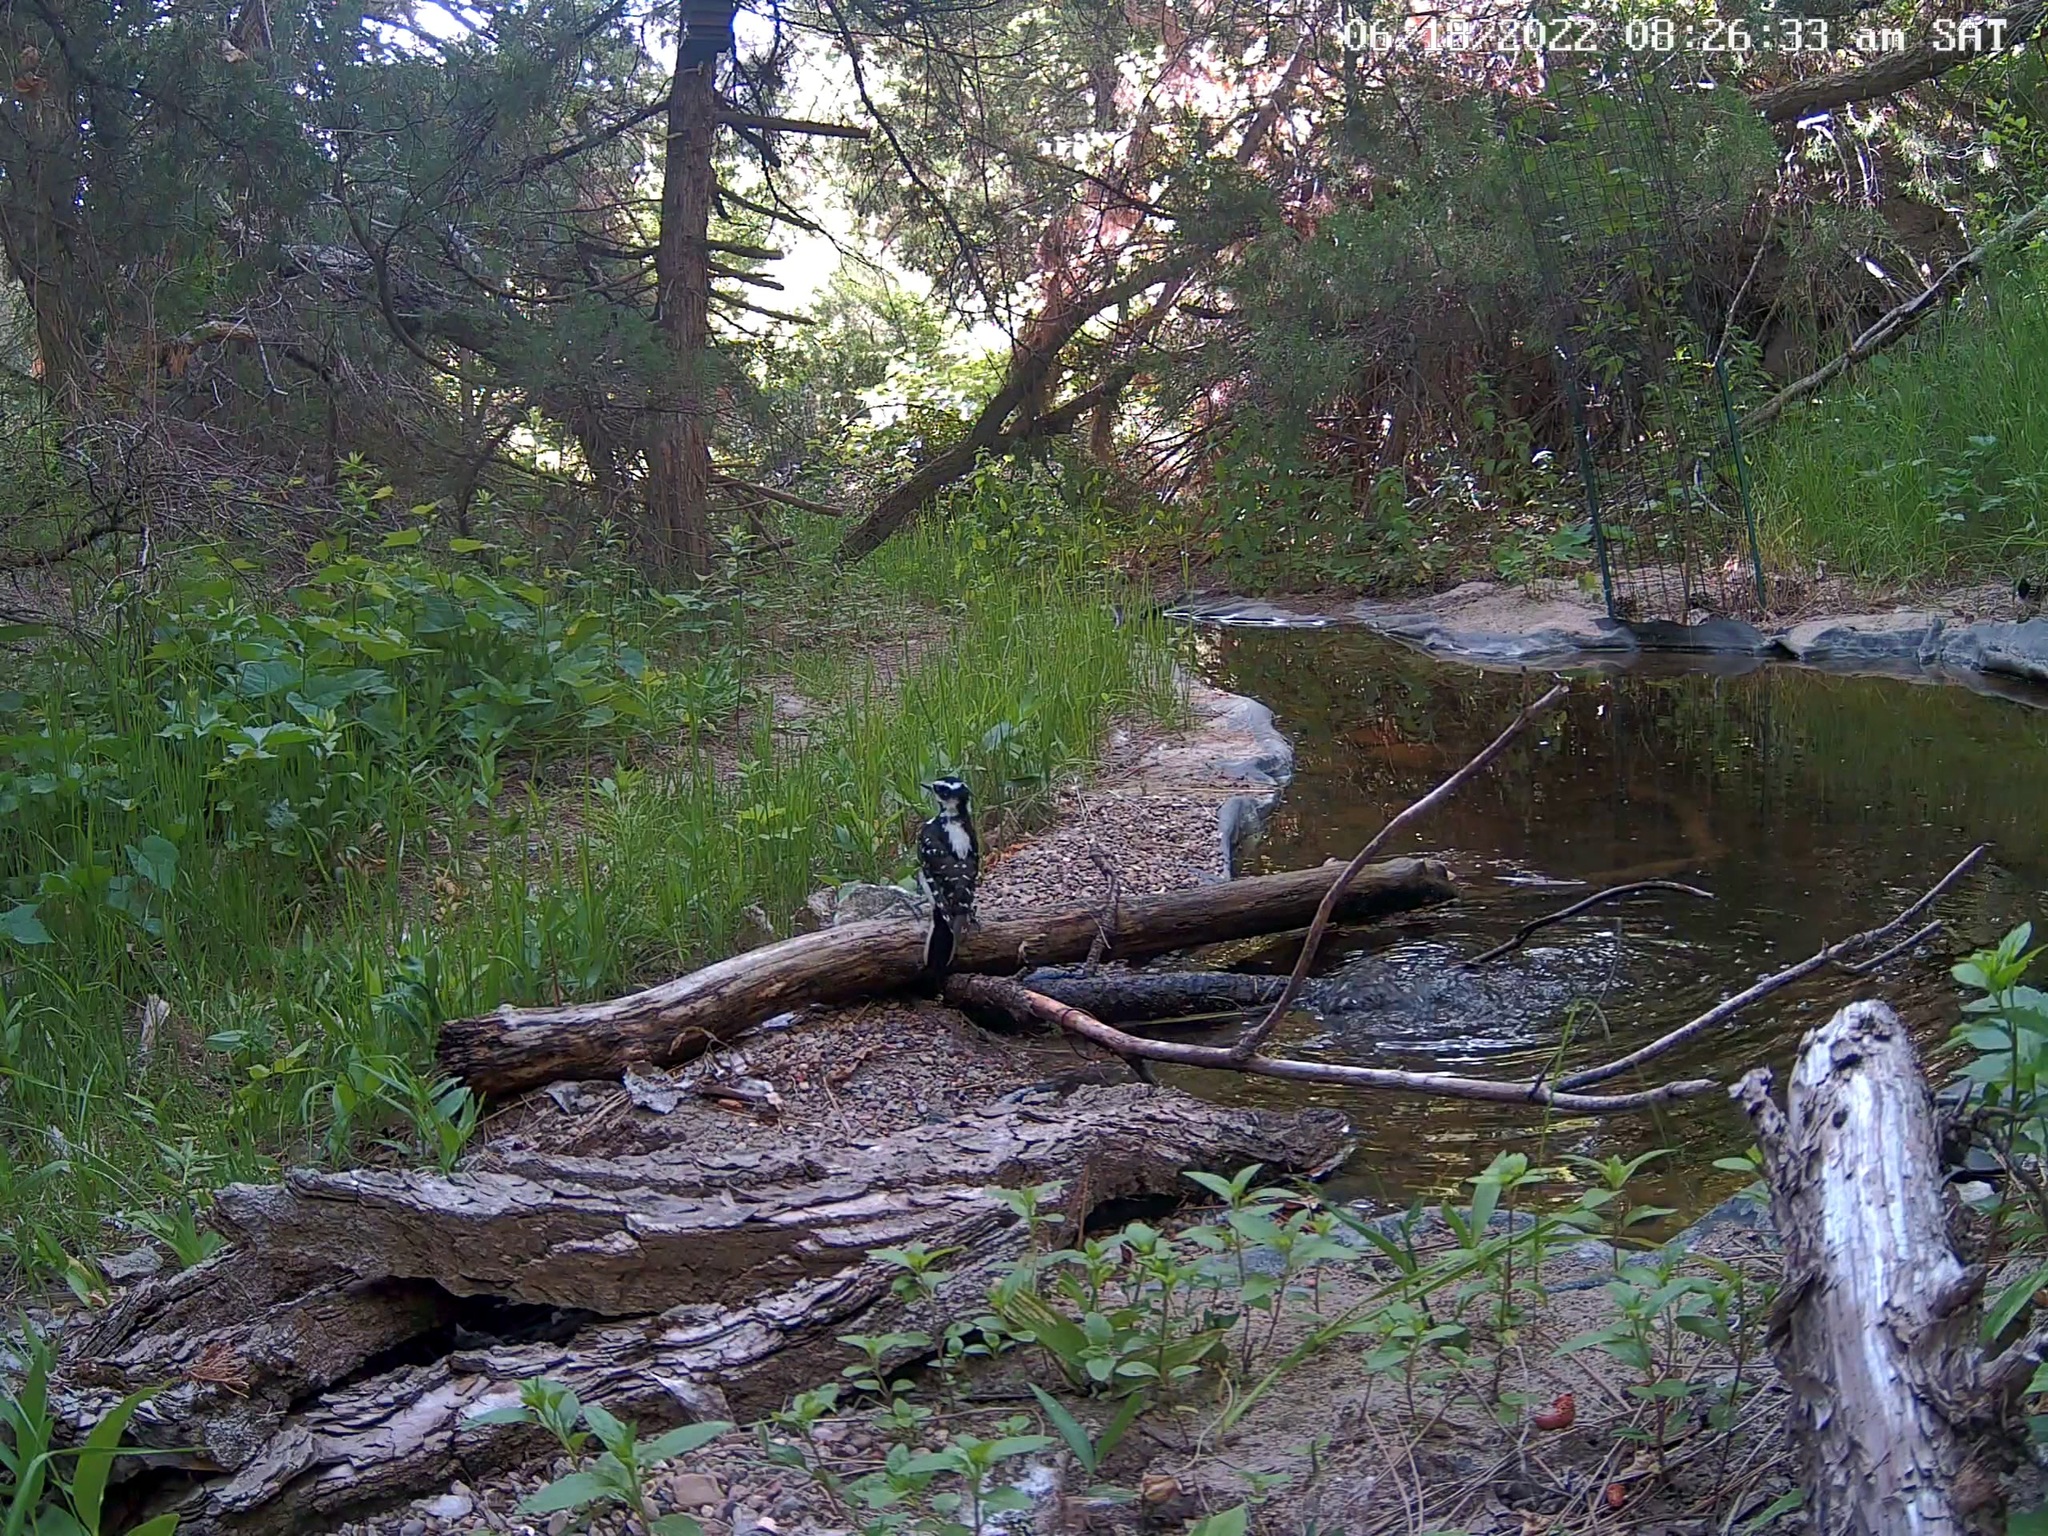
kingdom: Animalia
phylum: Chordata
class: Aves
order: Piciformes
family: Picidae
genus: Leuconotopicus
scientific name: Leuconotopicus villosus
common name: Hairy woodpecker
